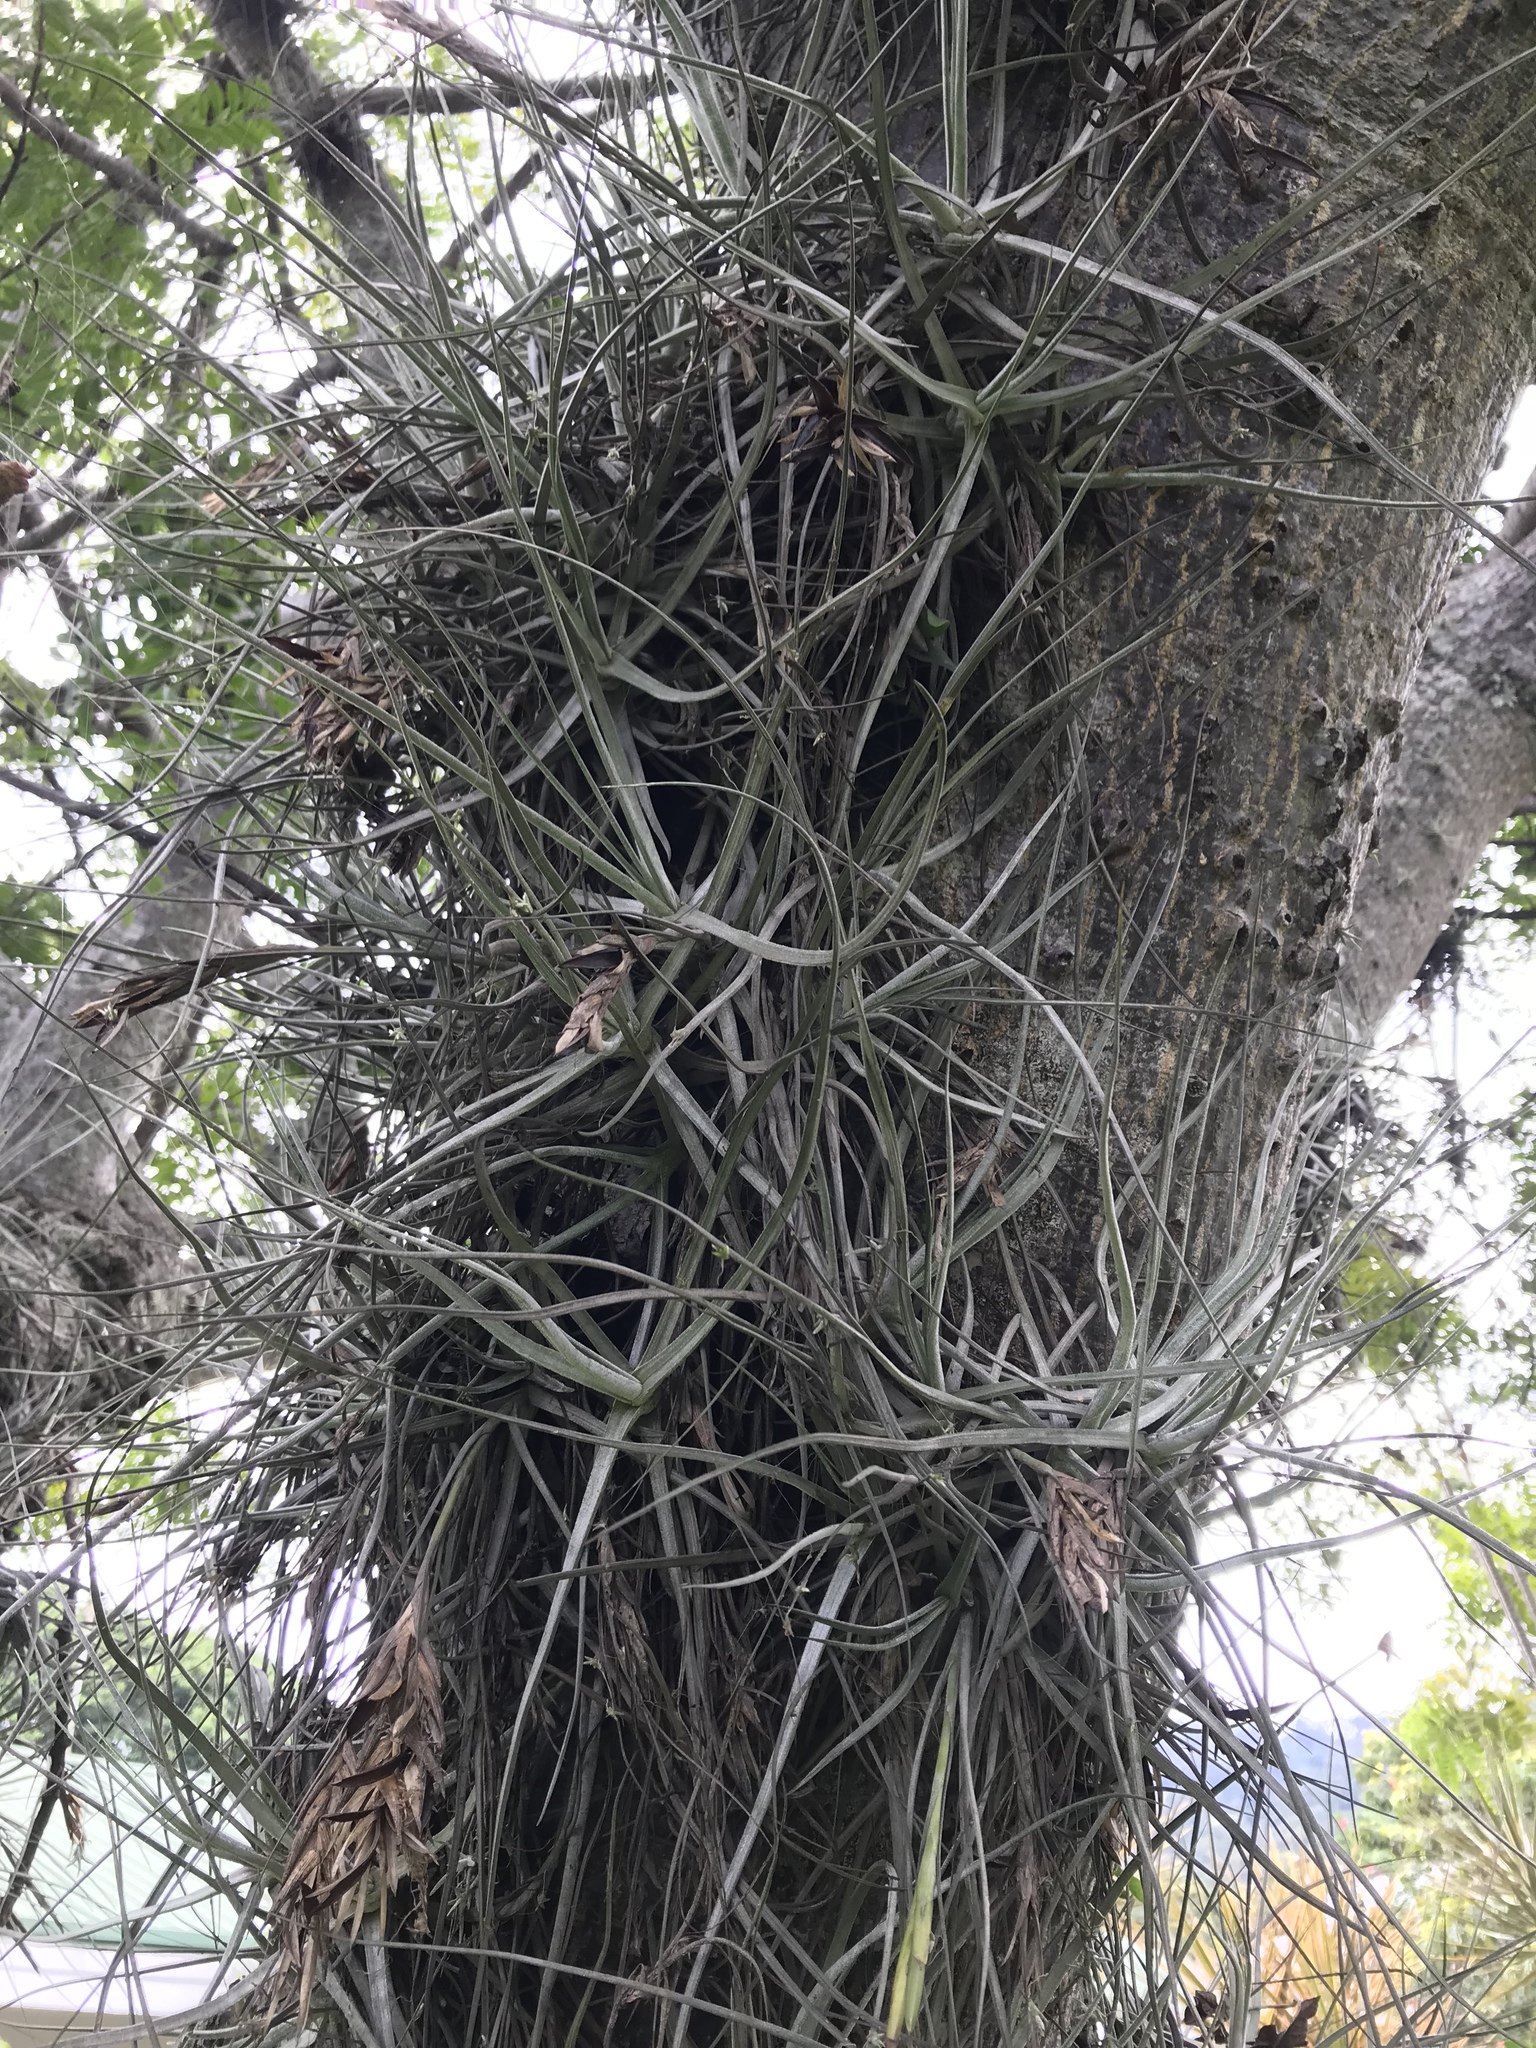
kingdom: Plantae
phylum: Tracheophyta
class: Liliopsida
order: Poales
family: Bromeliaceae
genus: Tillandsia
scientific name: Tillandsia schiedeana
